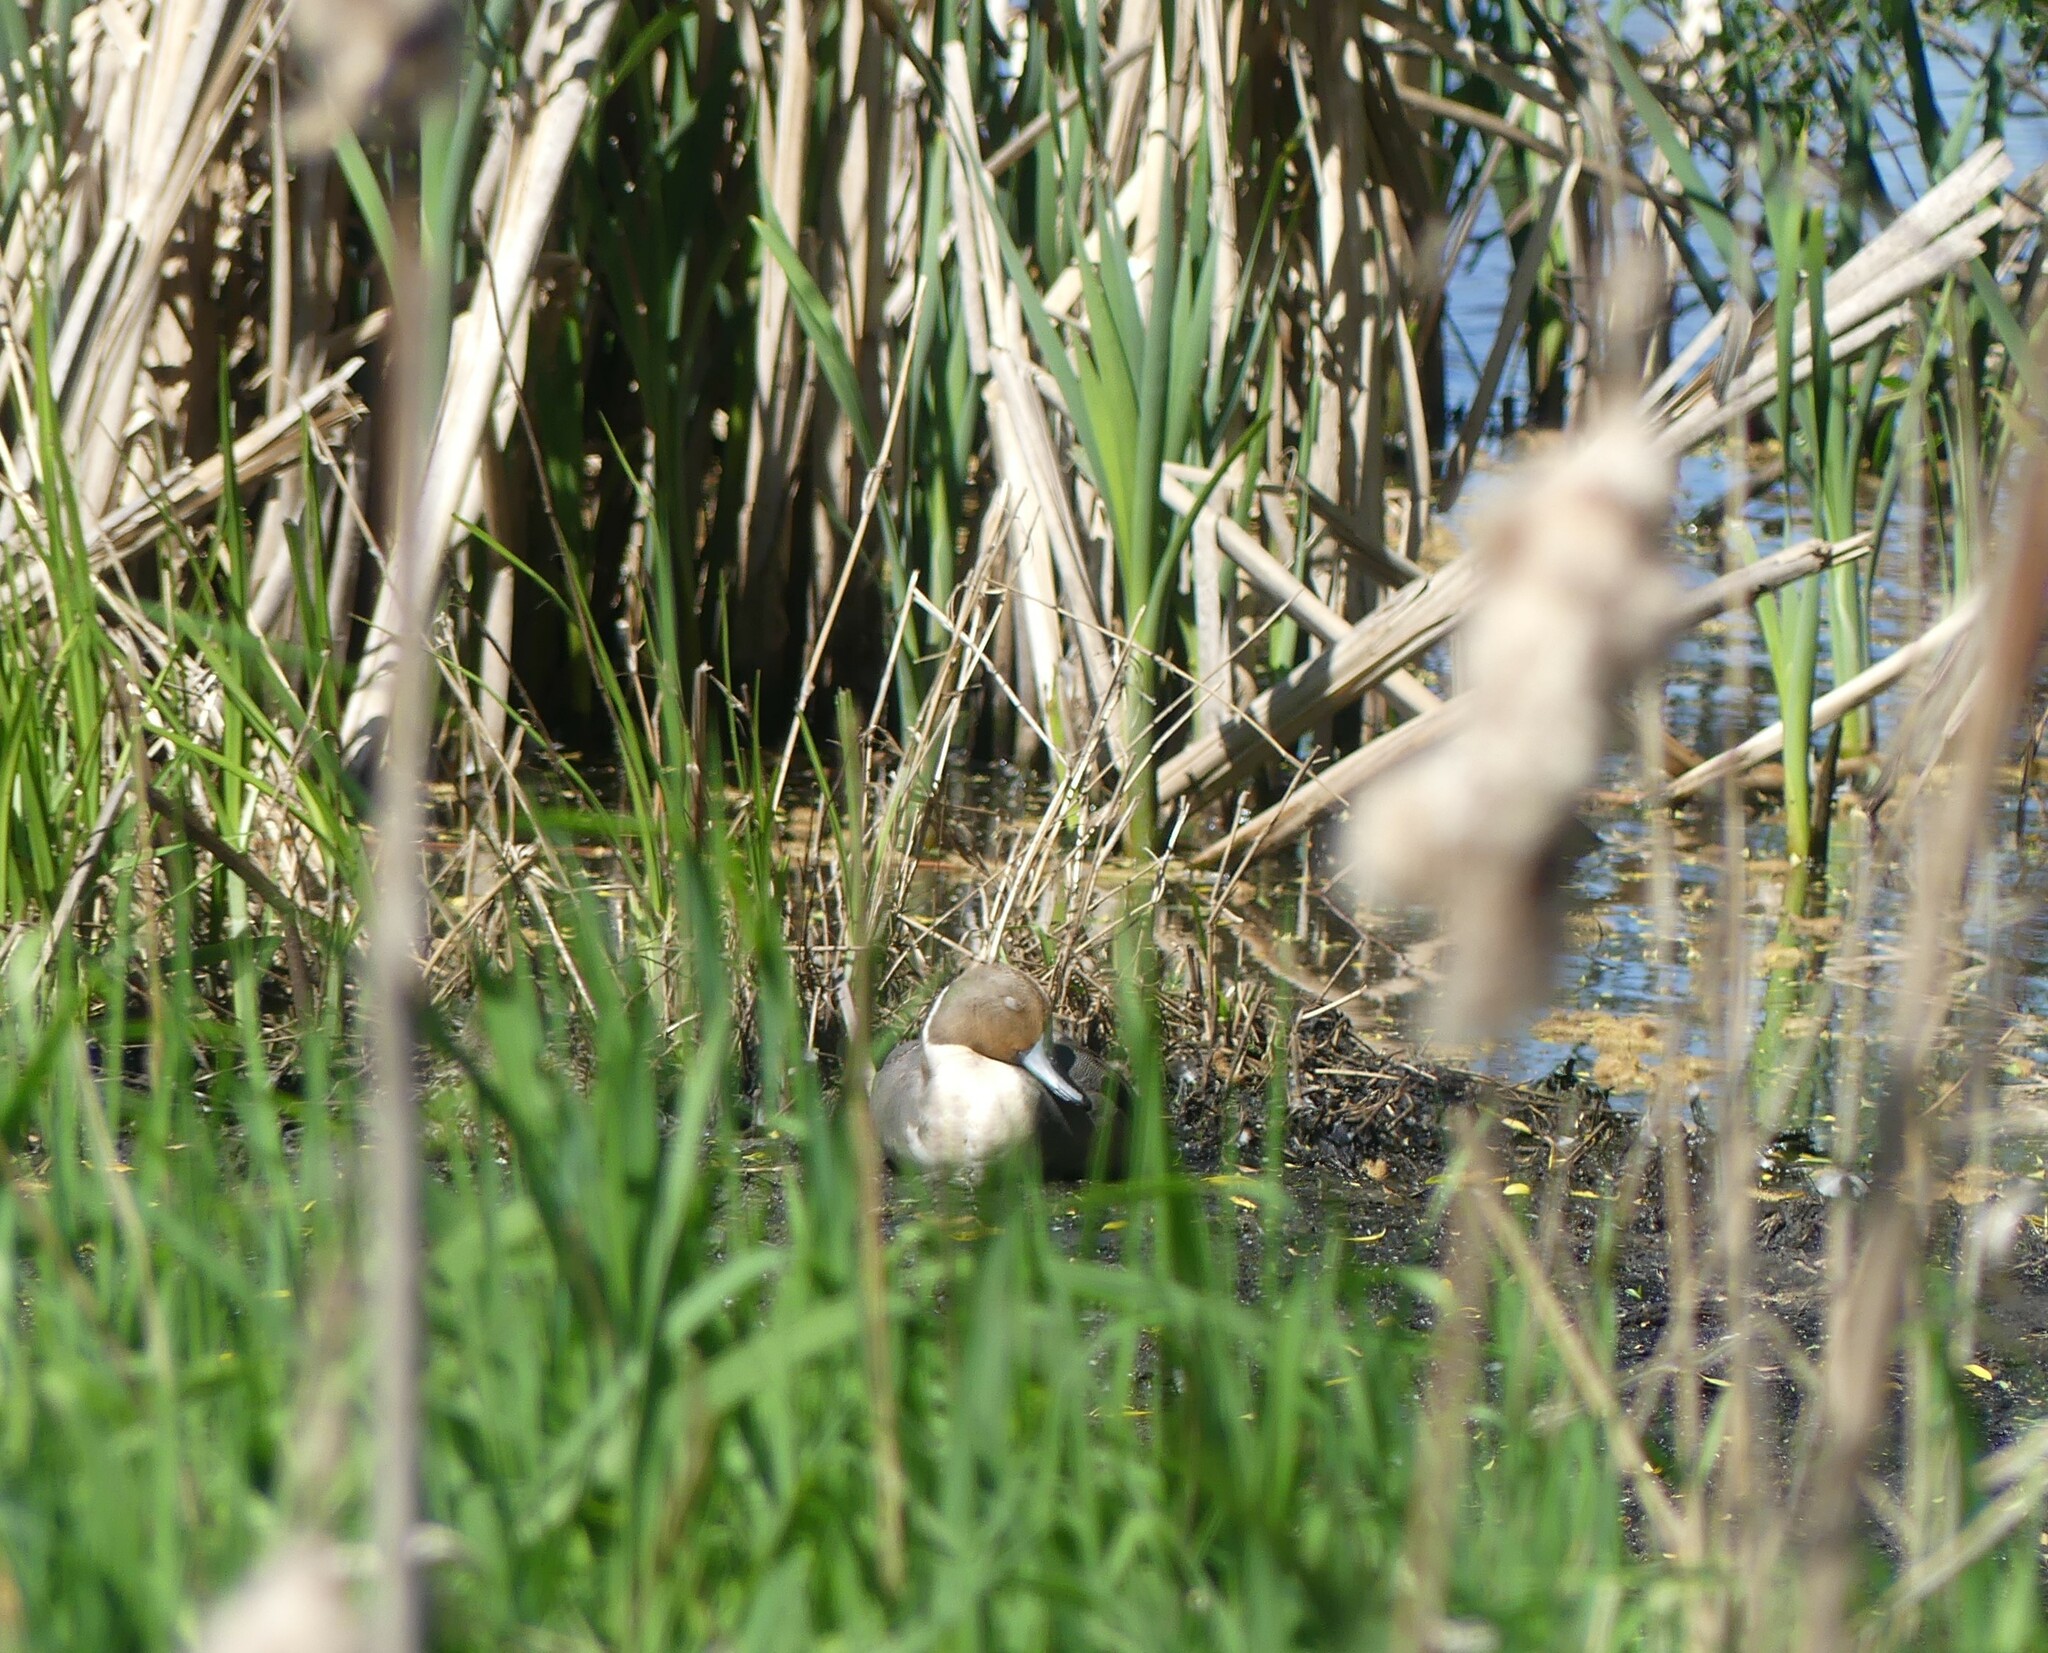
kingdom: Animalia
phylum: Chordata
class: Aves
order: Anseriformes
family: Anatidae
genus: Anas
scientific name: Anas acuta
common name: Northern pintail
